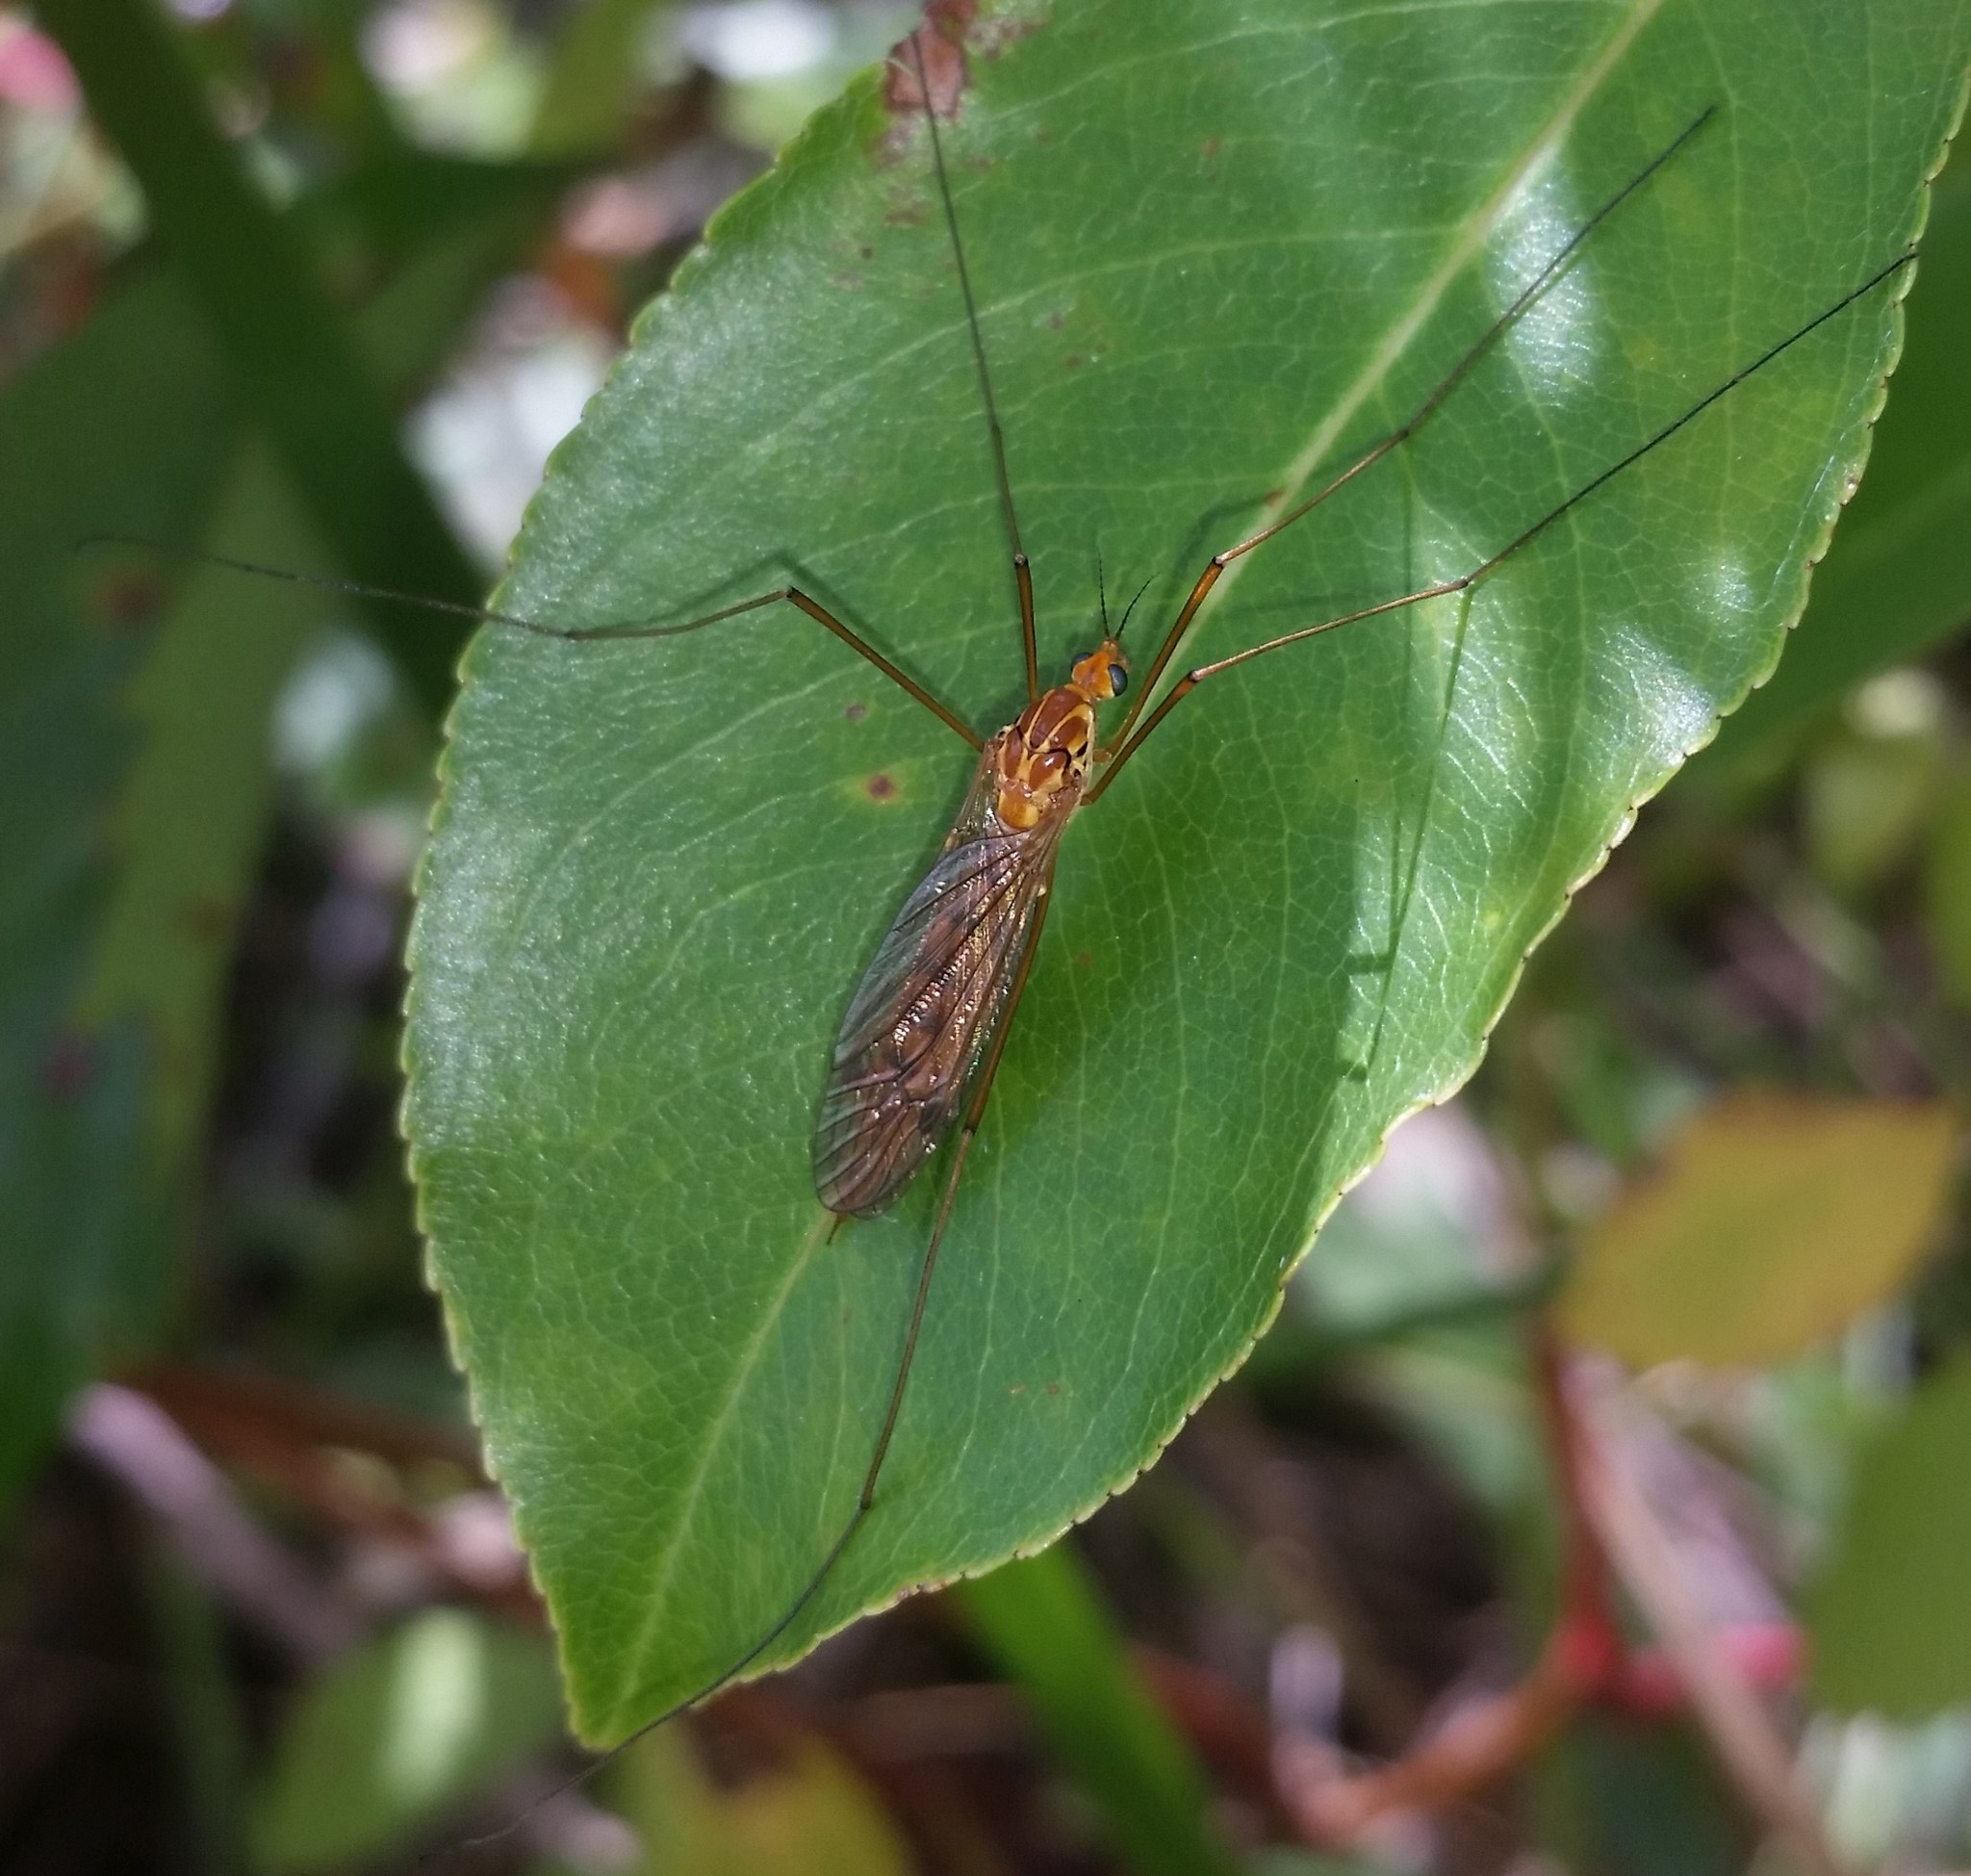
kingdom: Animalia
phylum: Arthropoda
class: Insecta
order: Diptera
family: Tipulidae
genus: Nephrotoma
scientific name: Nephrotoma ferruginea
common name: Ferruginous tiger crane fly
